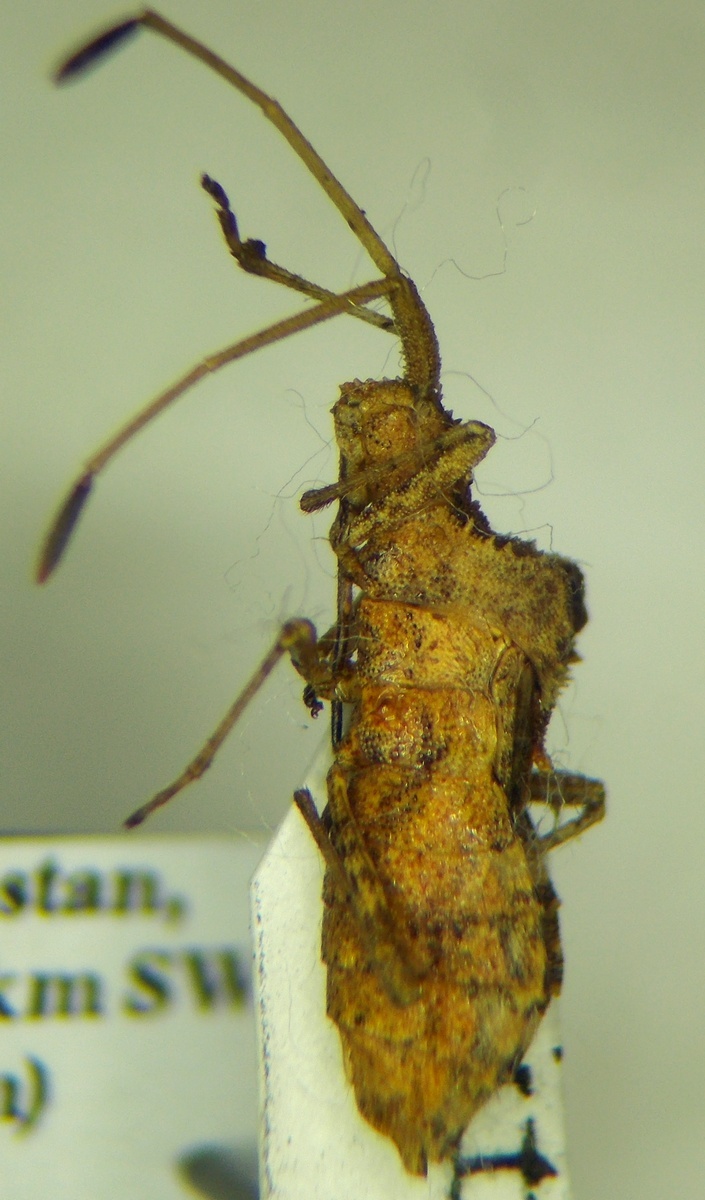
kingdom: Animalia
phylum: Arthropoda
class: Insecta
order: Hemiptera
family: Coreidae
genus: Centrocoris
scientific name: Centrocoris spiniger
